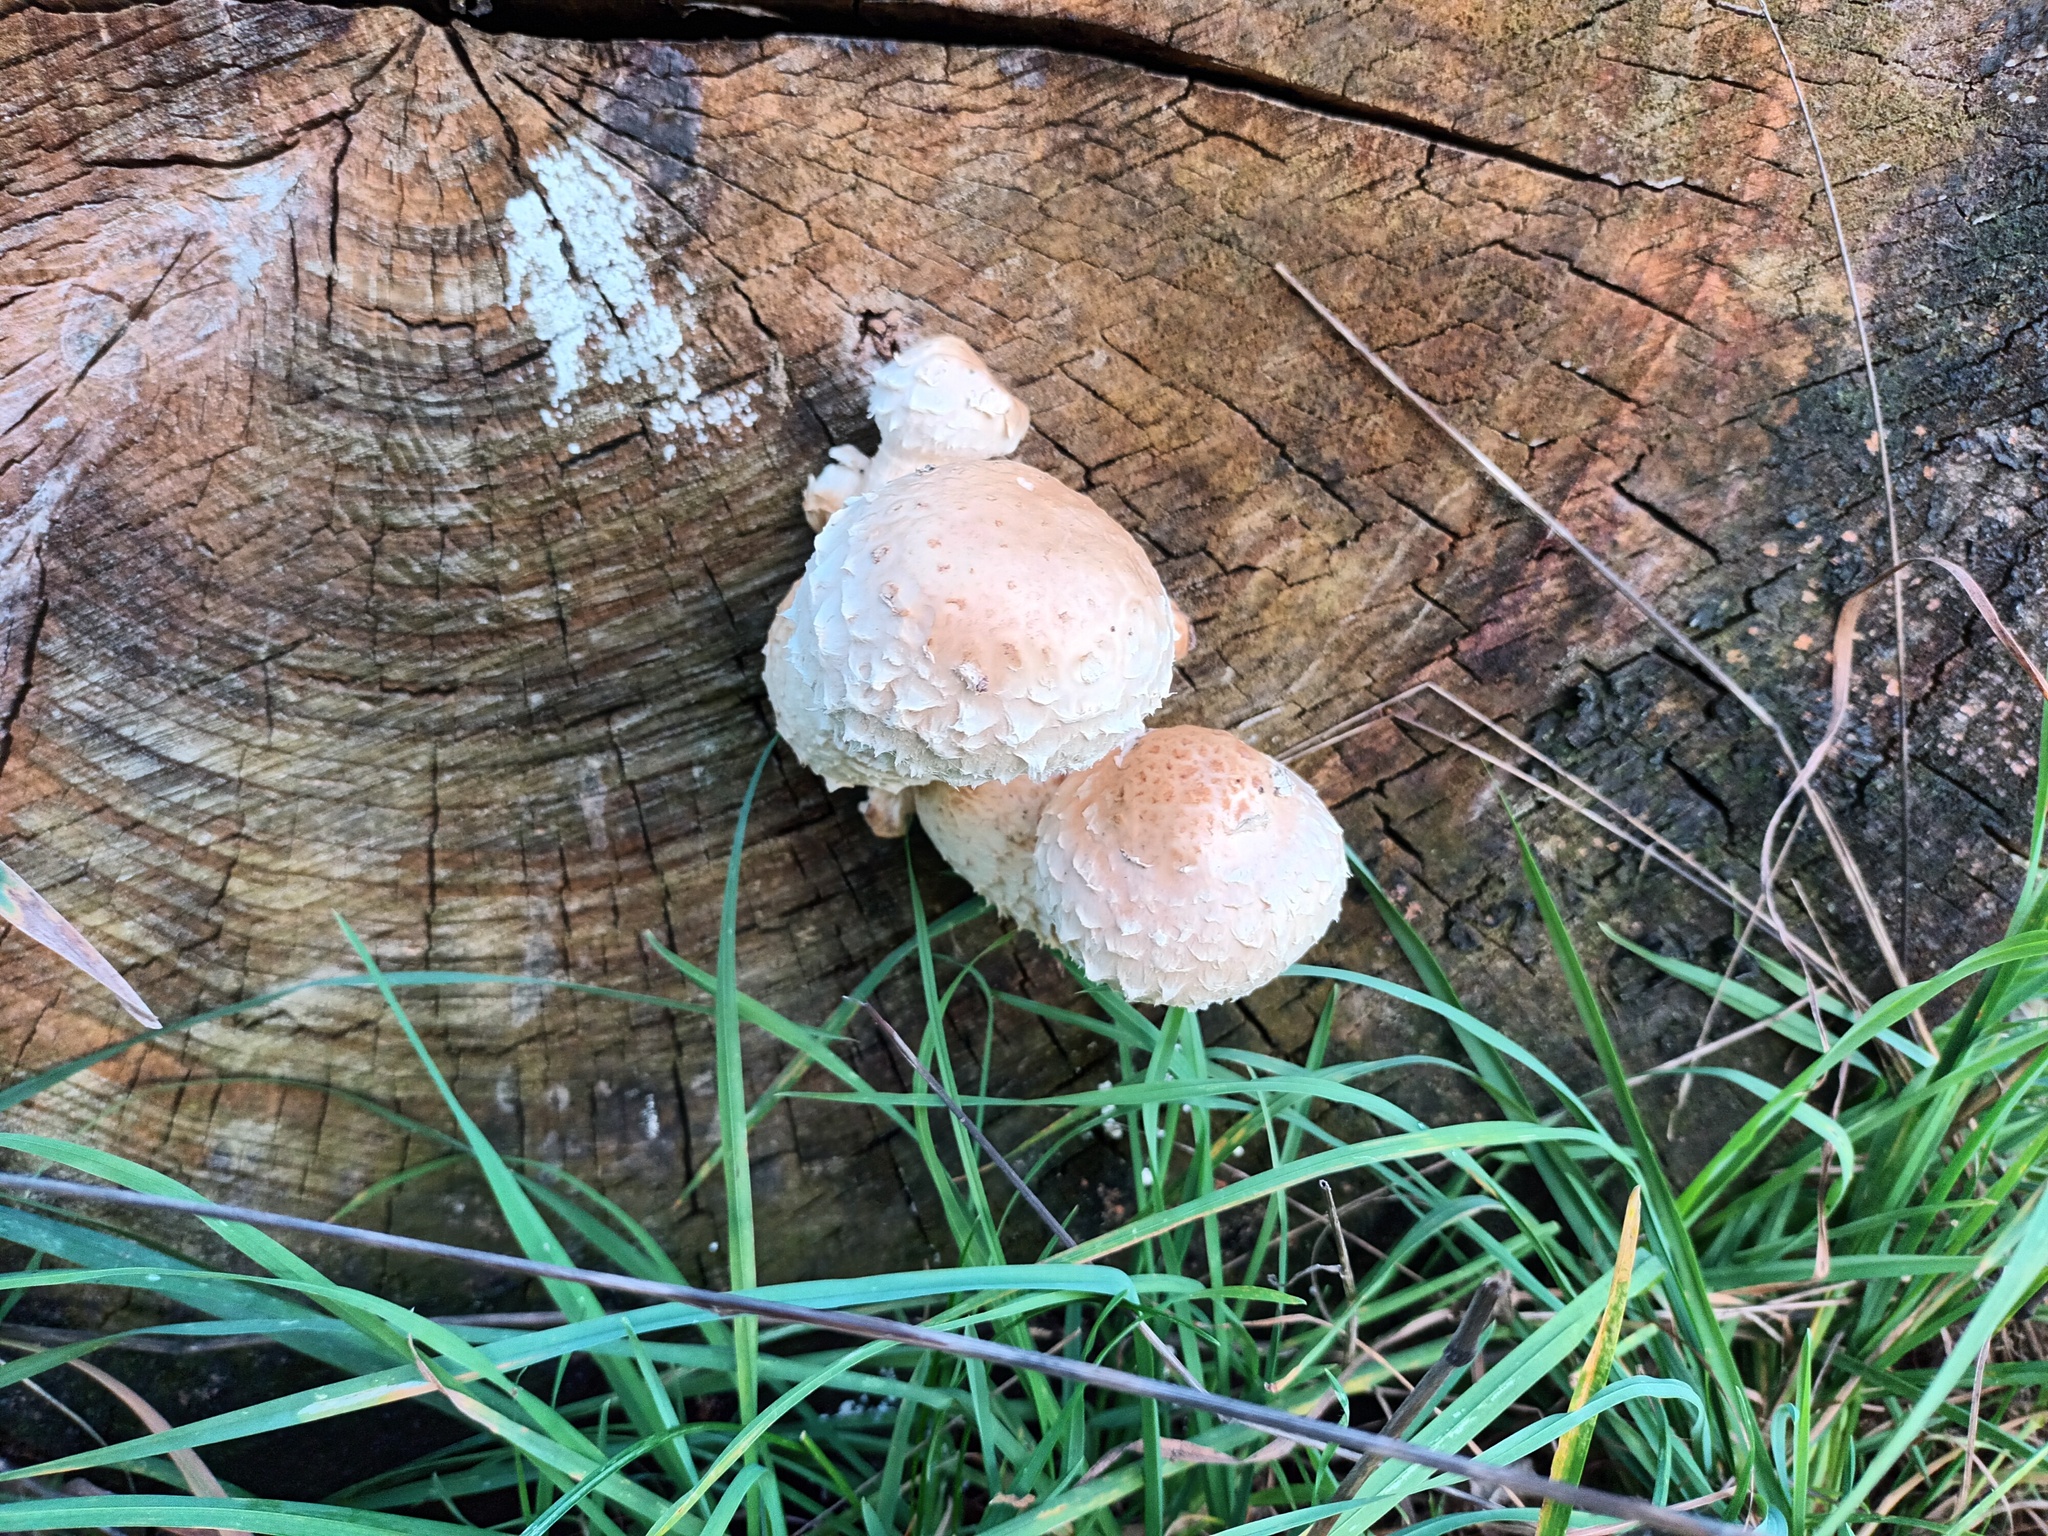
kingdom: Fungi
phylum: Basidiomycota
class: Agaricomycetes
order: Agaricales
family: Strophariaceae
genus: Pholiota
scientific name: Pholiota populnea
